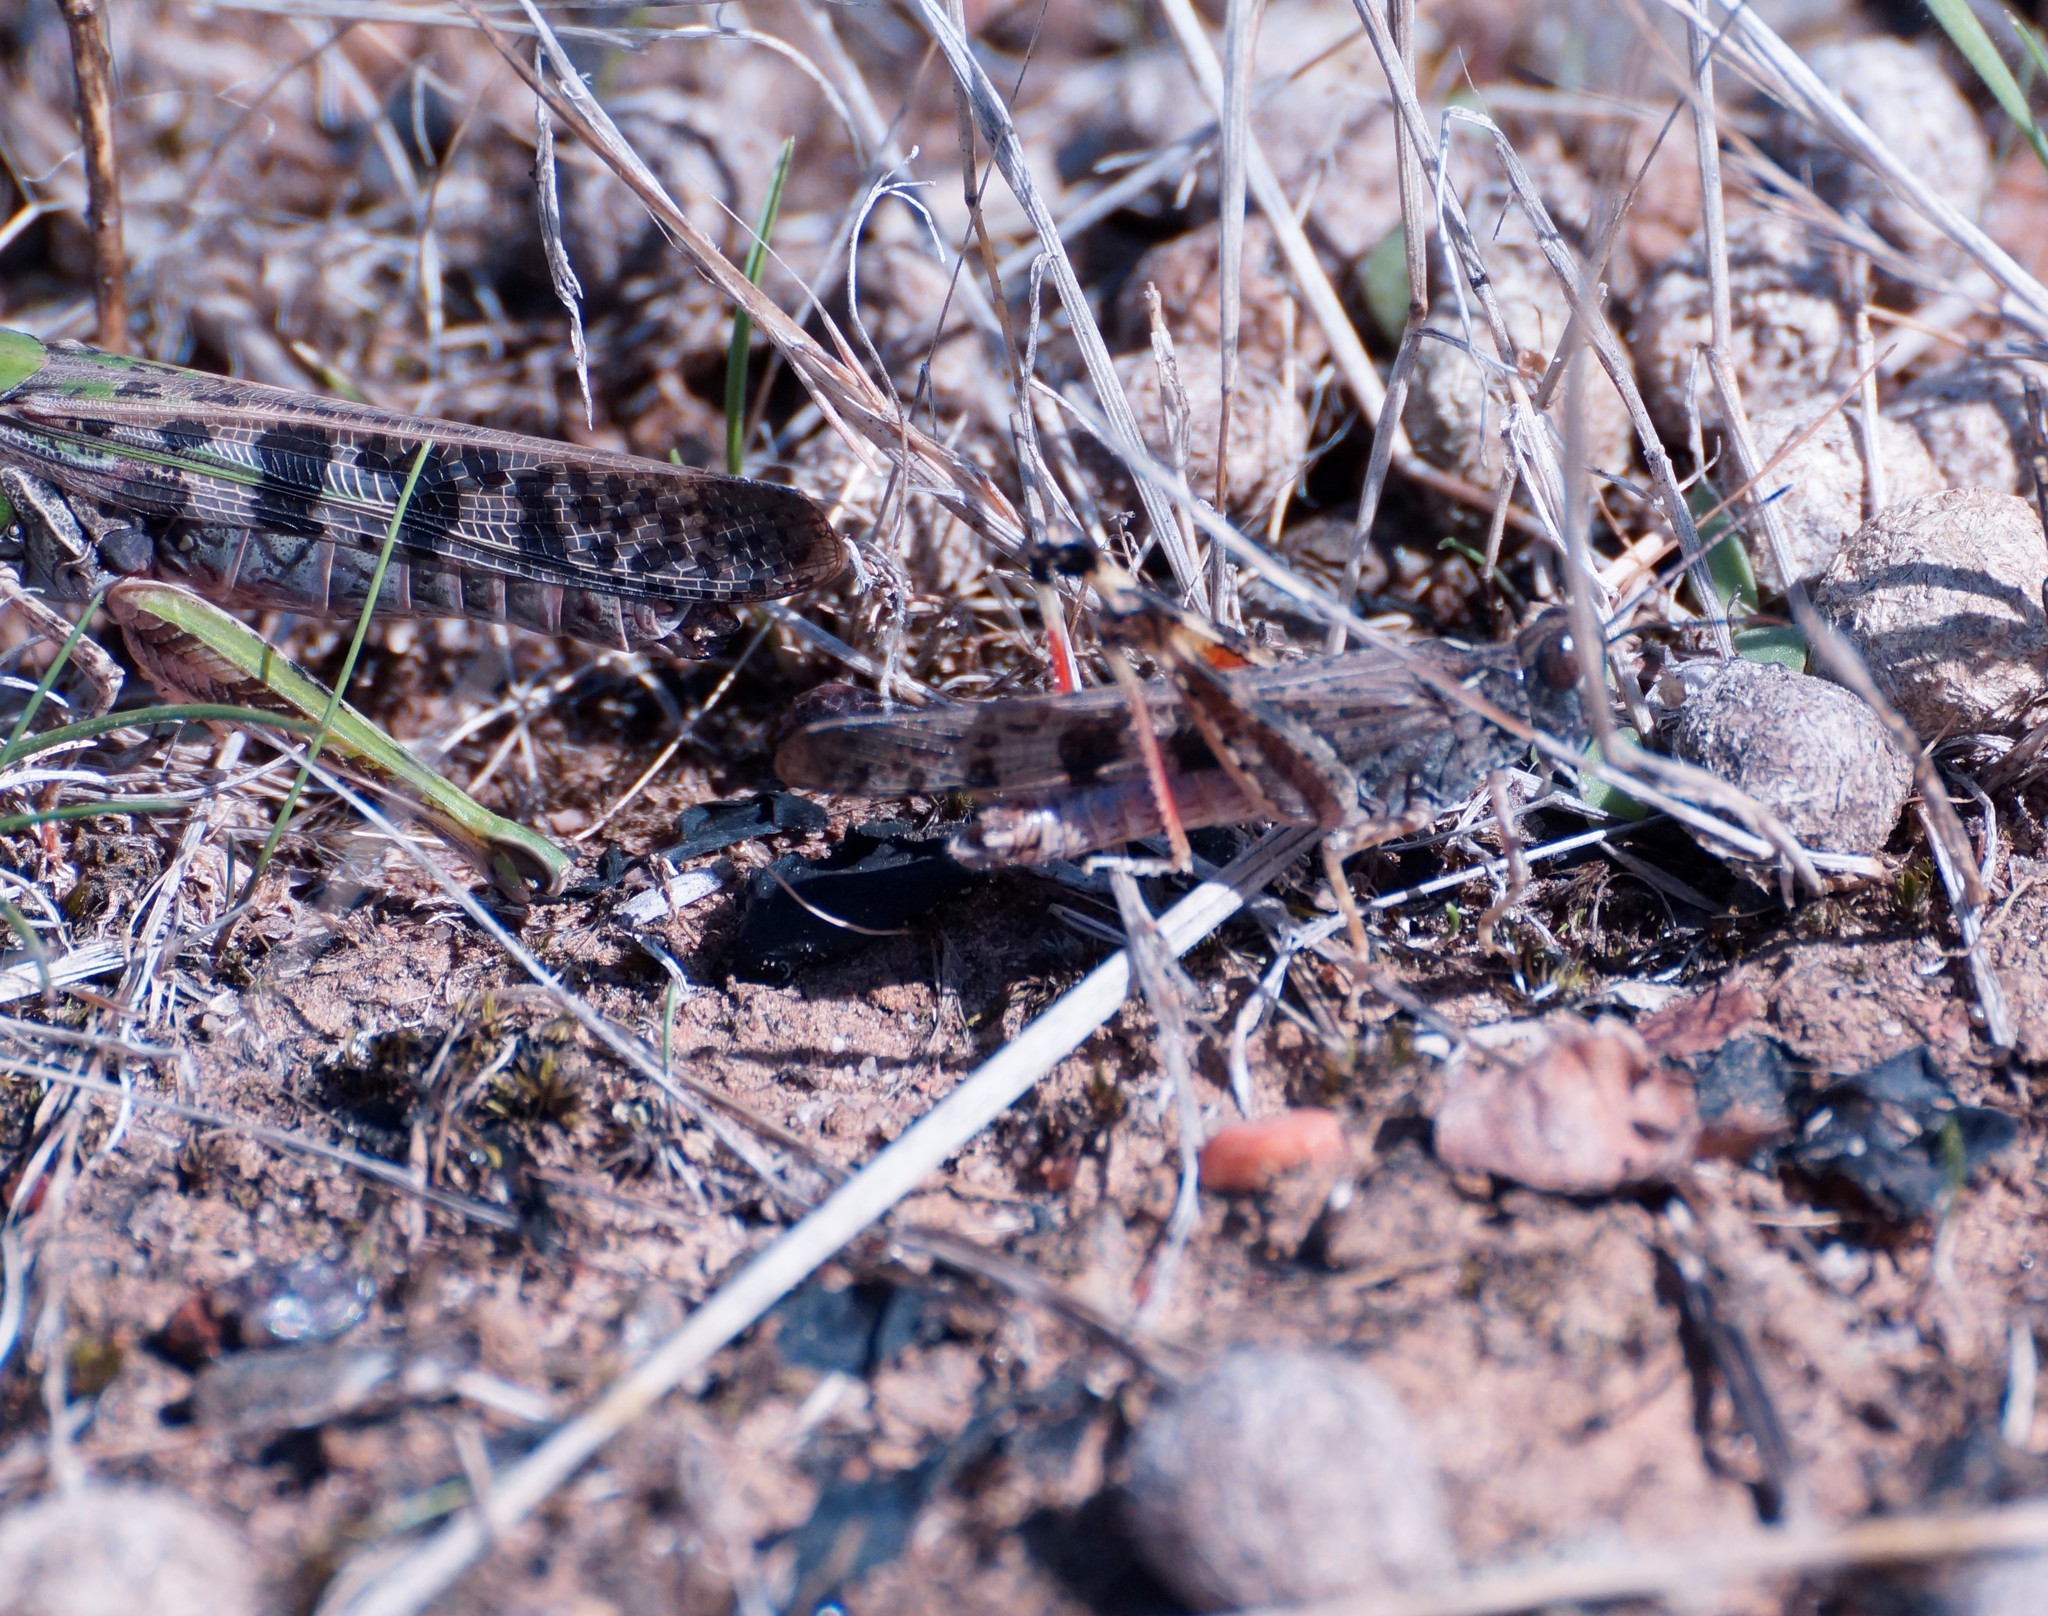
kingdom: Animalia
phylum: Arthropoda
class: Insecta
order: Orthoptera
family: Acrididae
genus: Chortoicetes
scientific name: Chortoicetes terminifera
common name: Australian plague locust
